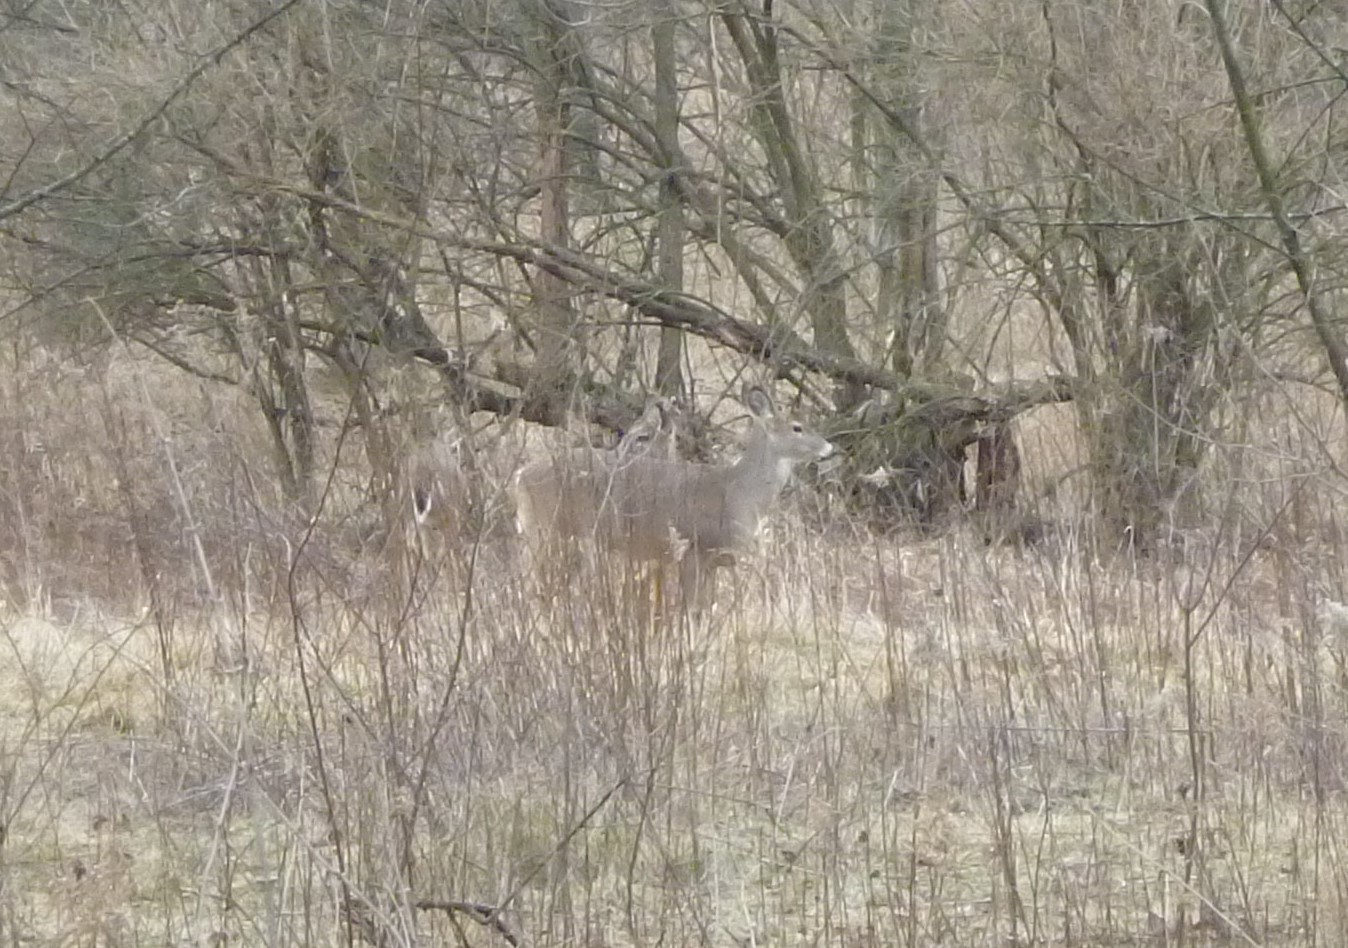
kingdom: Animalia
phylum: Chordata
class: Mammalia
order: Artiodactyla
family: Cervidae
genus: Odocoileus
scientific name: Odocoileus virginianus
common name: White-tailed deer
